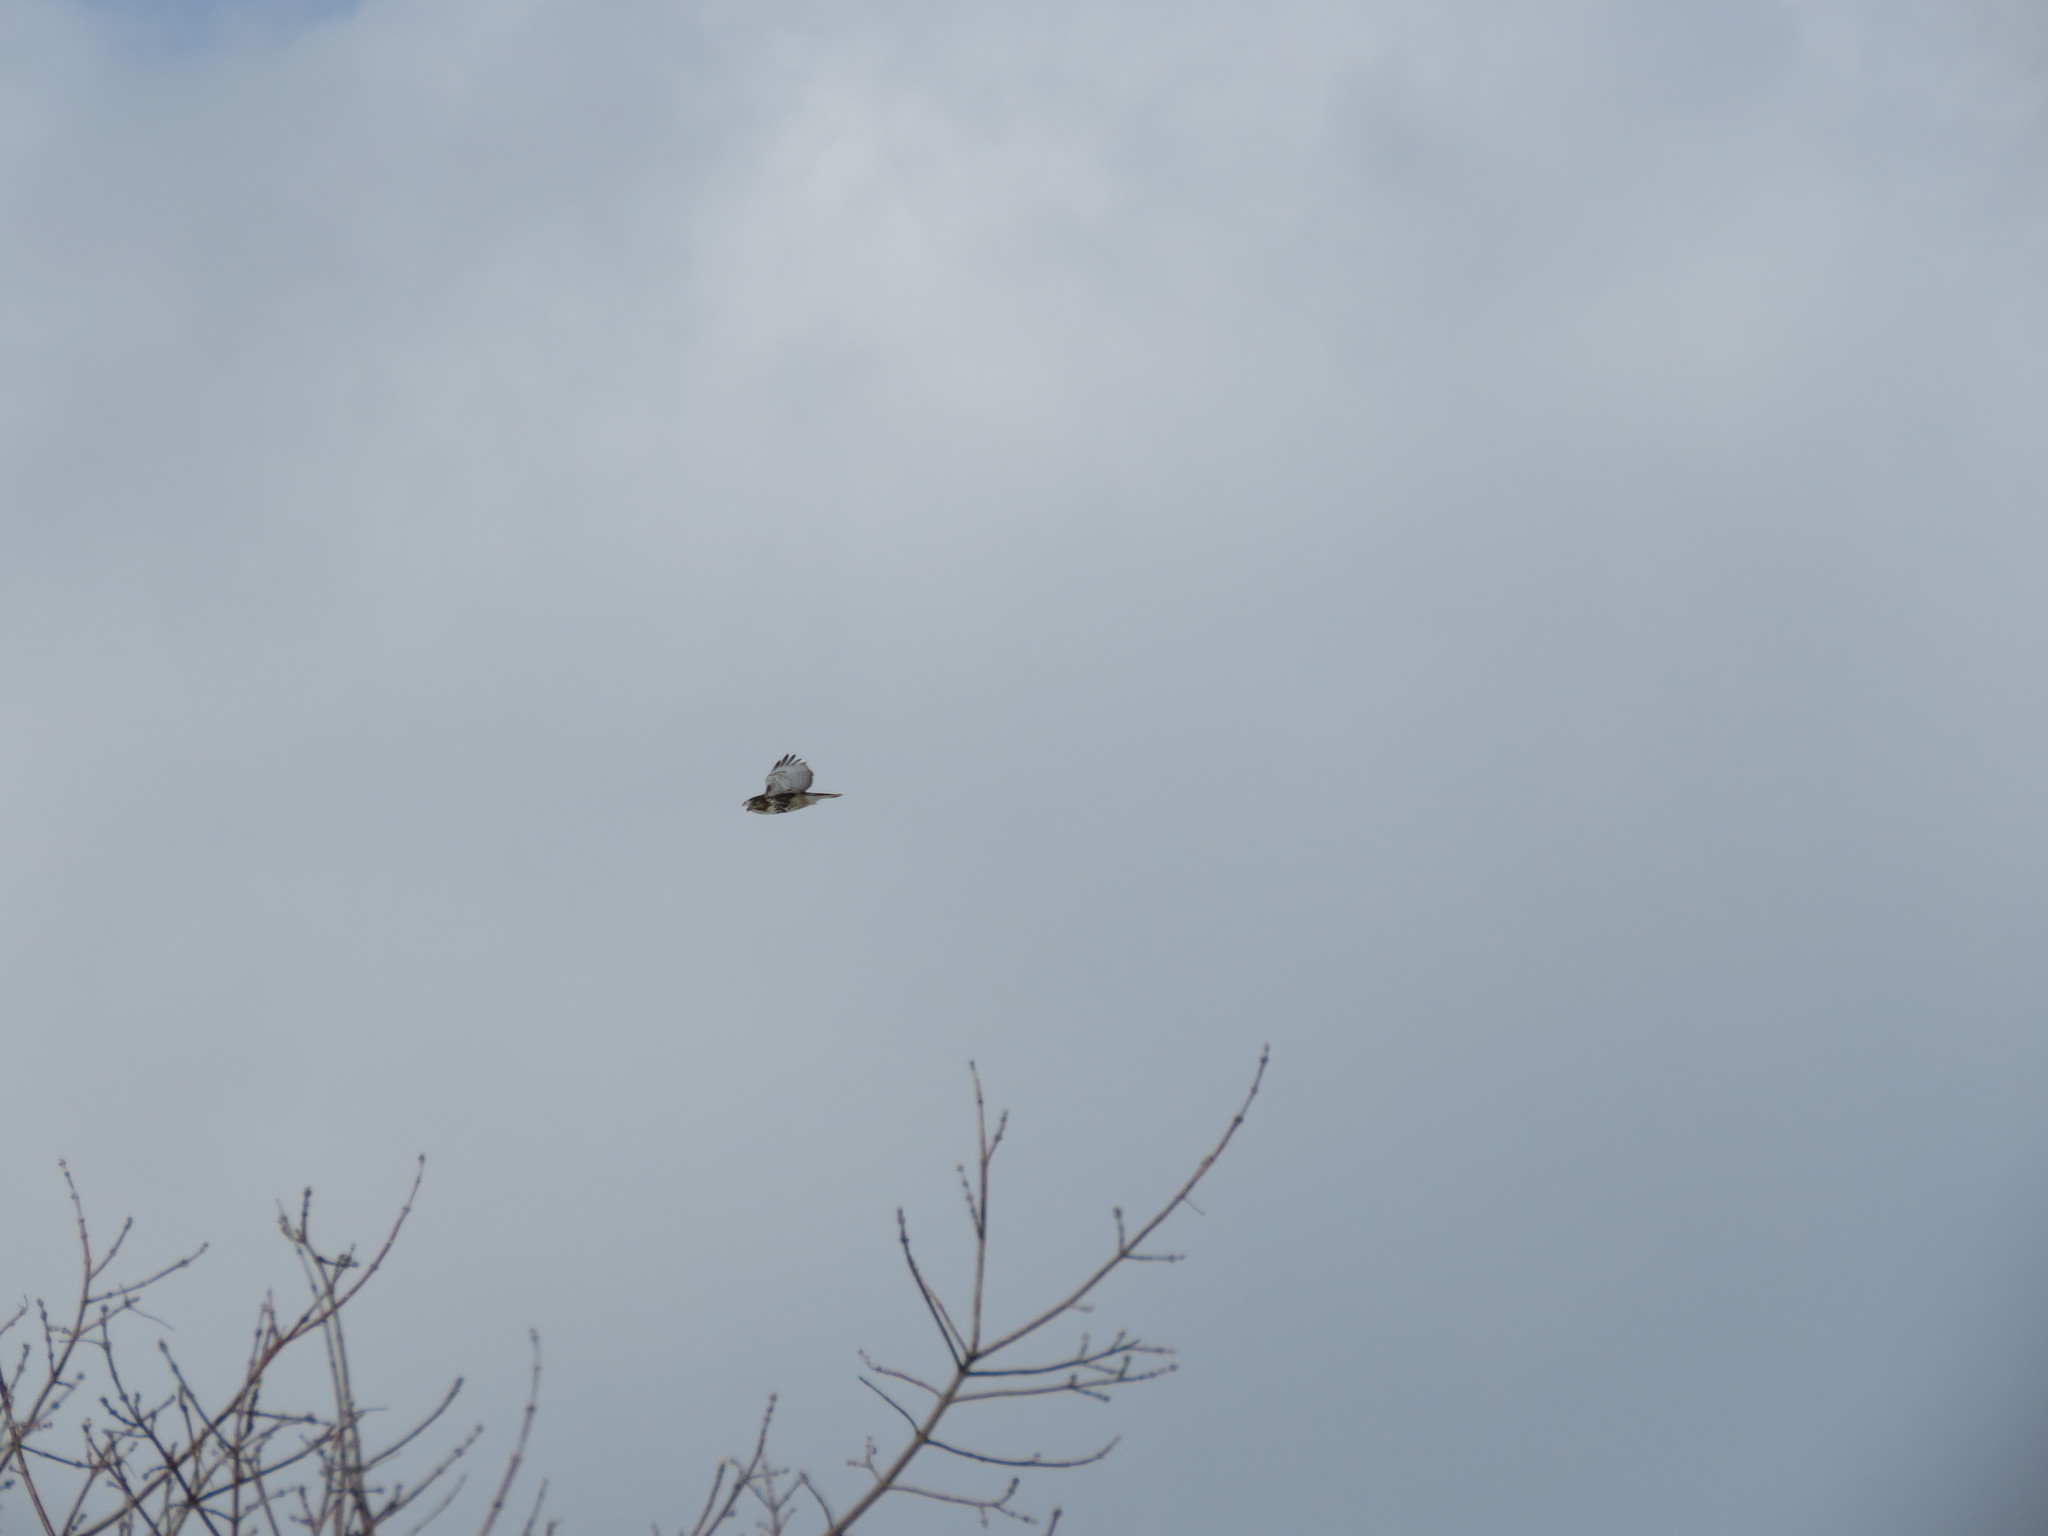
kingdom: Animalia
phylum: Chordata
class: Aves
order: Accipitriformes
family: Accipitridae
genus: Buteo
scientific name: Buteo jamaicensis
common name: Red-tailed hawk
